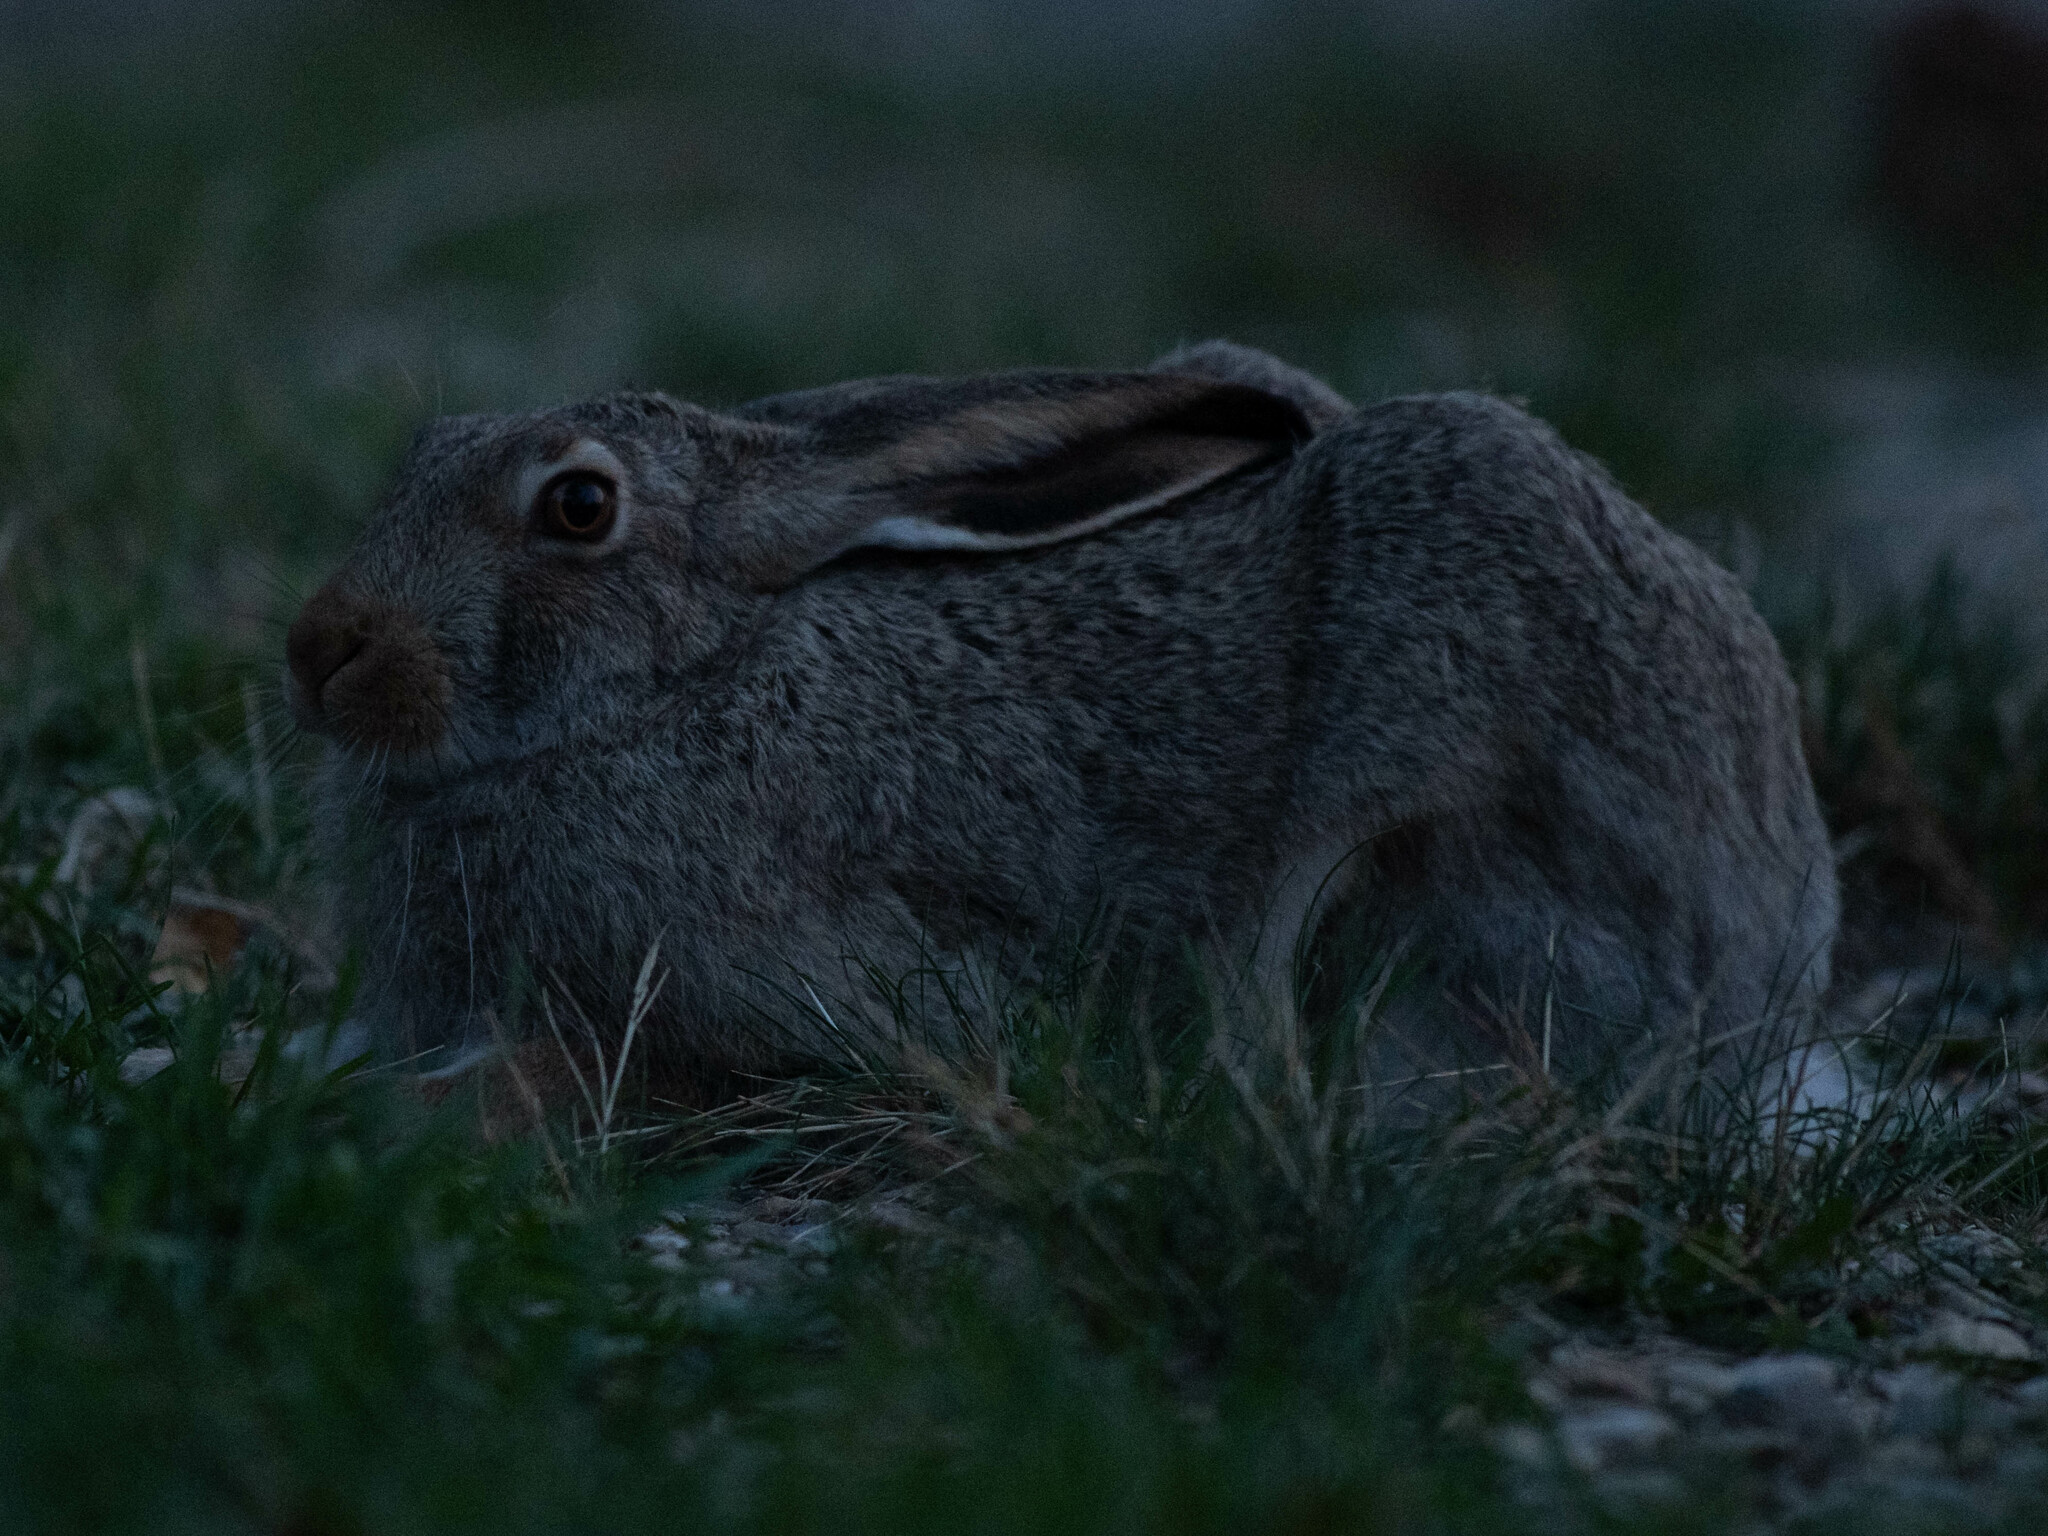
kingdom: Animalia
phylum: Chordata
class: Mammalia
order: Lagomorpha
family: Leporidae
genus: Lepus
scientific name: Lepus townsendii
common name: White-tailed jackrabbit
